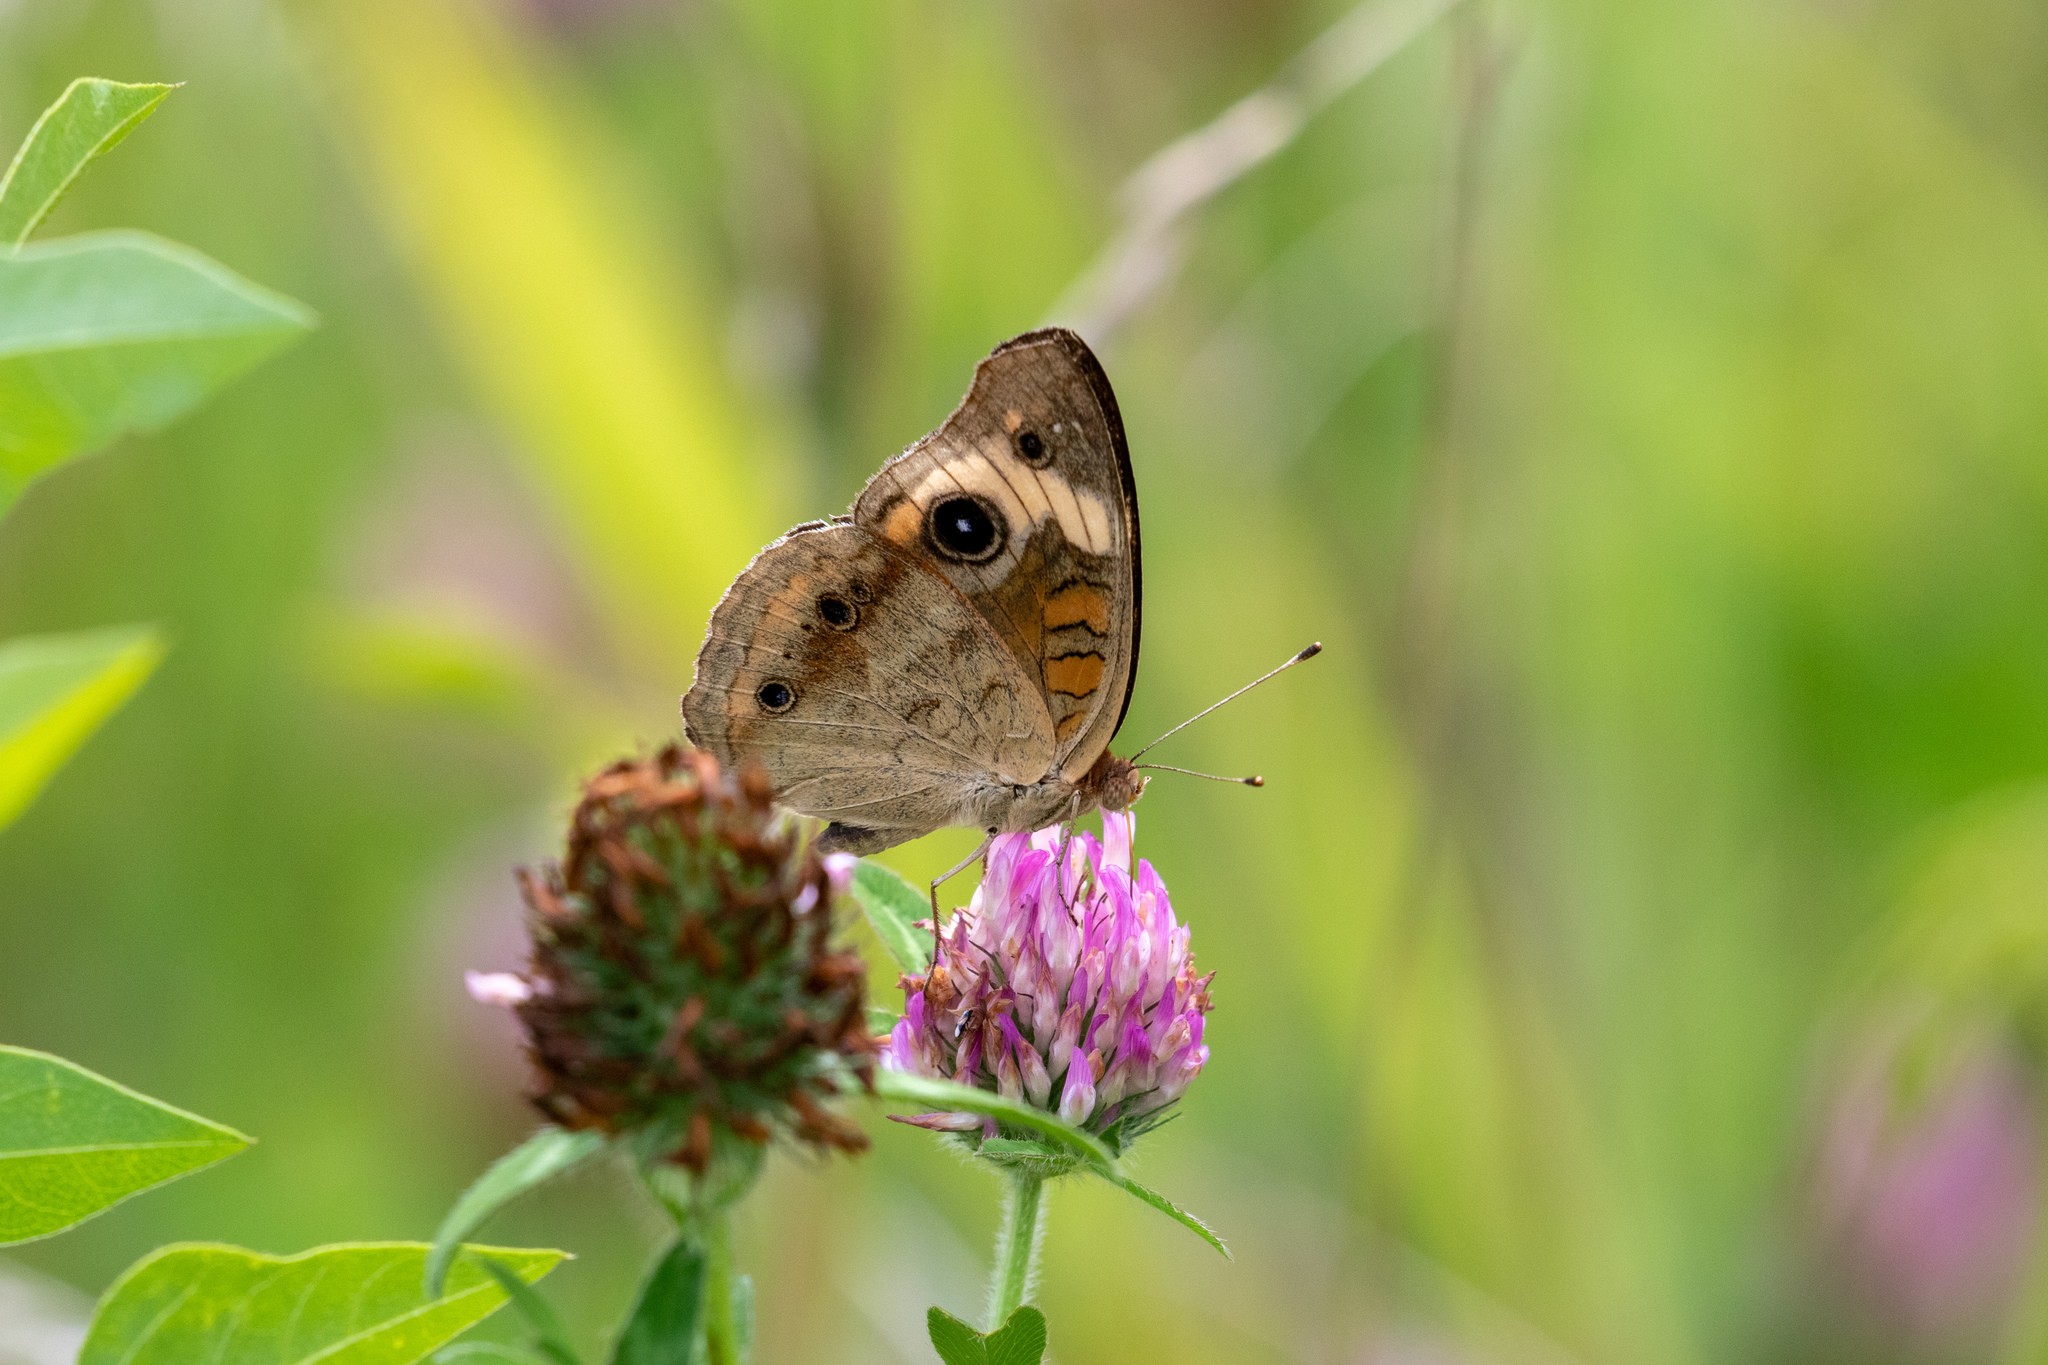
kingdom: Animalia
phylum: Arthropoda
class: Insecta
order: Lepidoptera
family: Nymphalidae
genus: Junonia
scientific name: Junonia coenia
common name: Common buckeye
